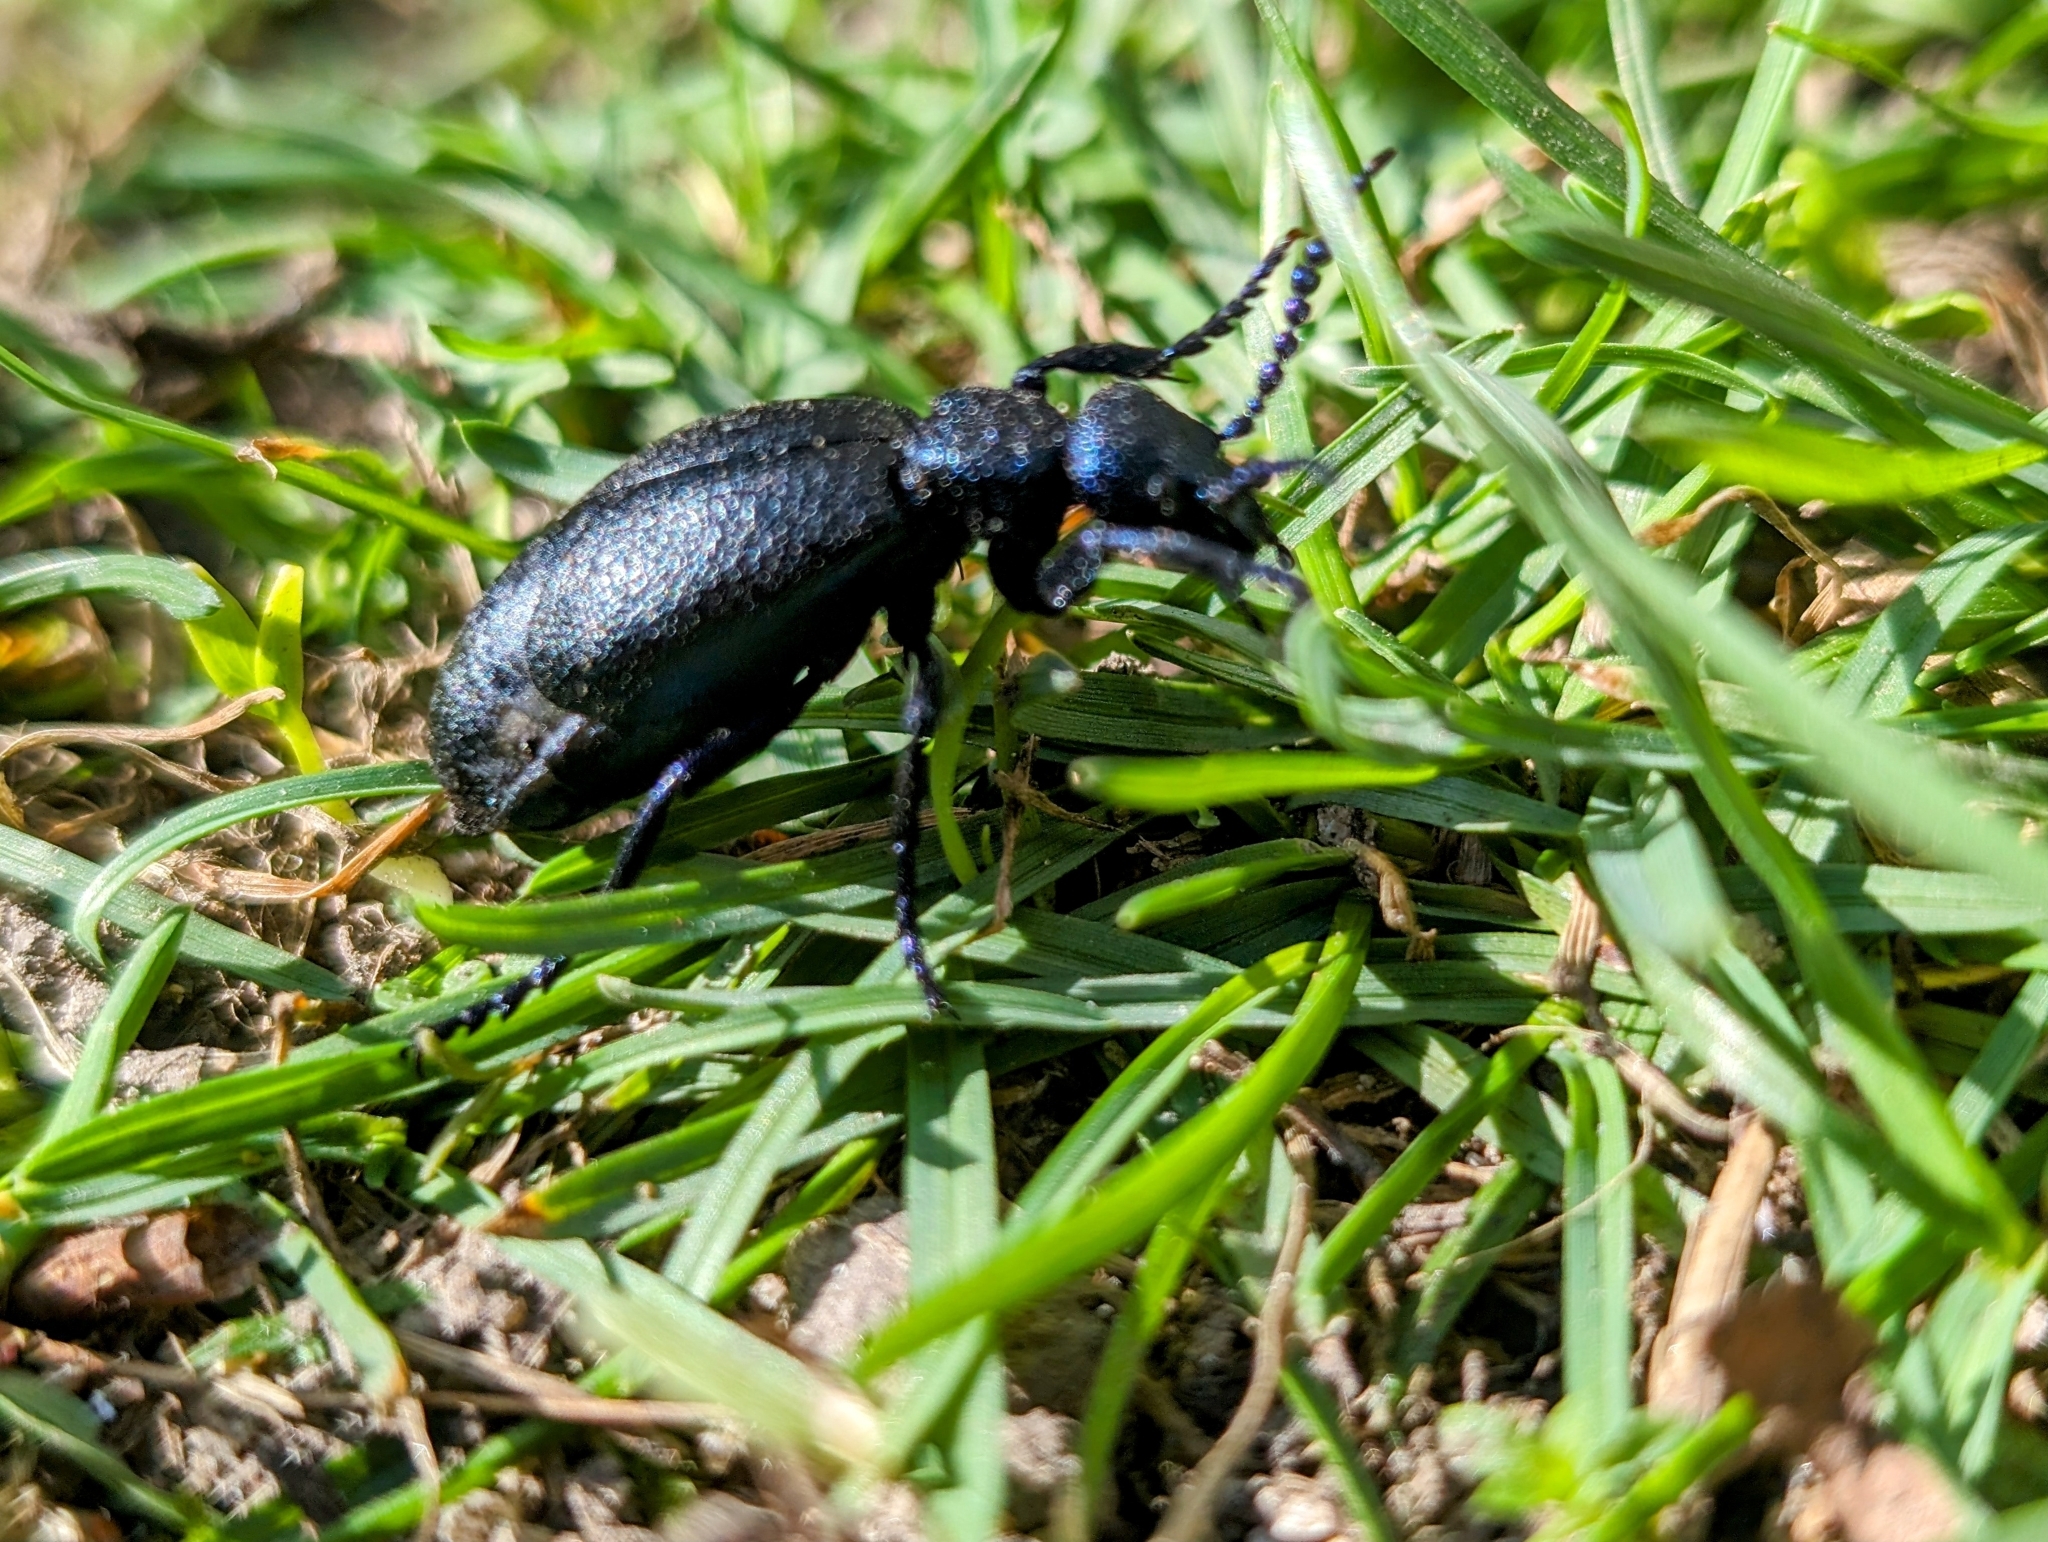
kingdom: Animalia
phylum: Arthropoda
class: Insecta
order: Coleoptera
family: Meloidae
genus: Meloe
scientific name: Meloe proscarabaeus
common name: Black oil-beetle
